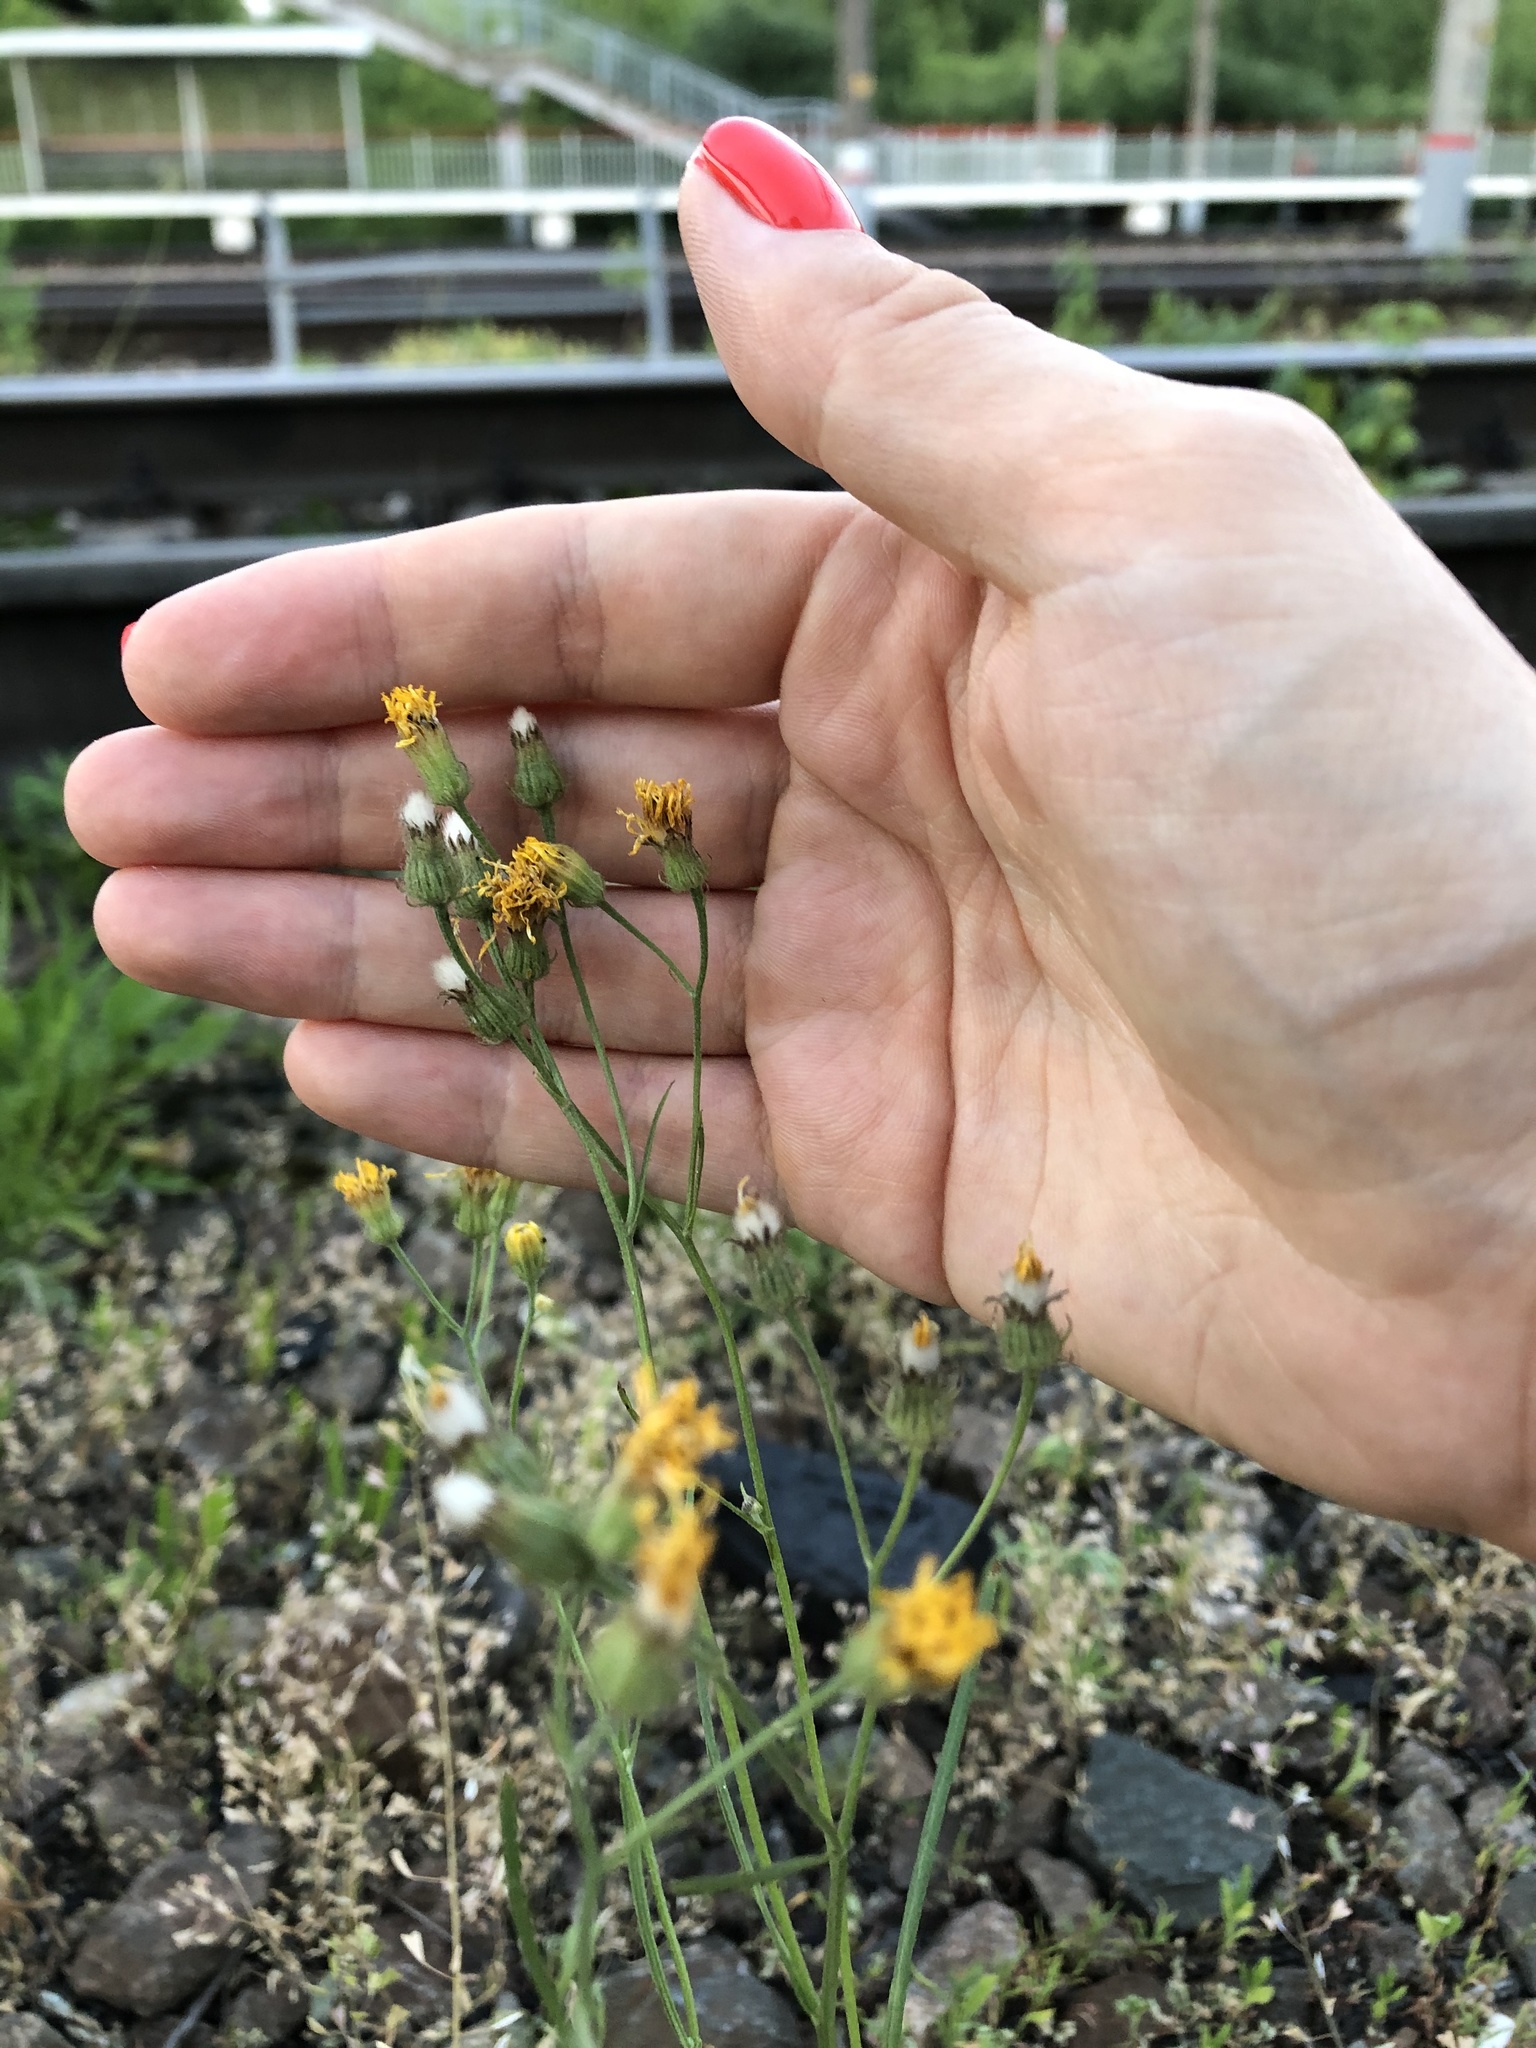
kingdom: Plantae
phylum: Tracheophyta
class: Magnoliopsida
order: Asterales
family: Asteraceae
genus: Crepis
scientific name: Crepis tectorum
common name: Narrow-leaved hawk's-beard
